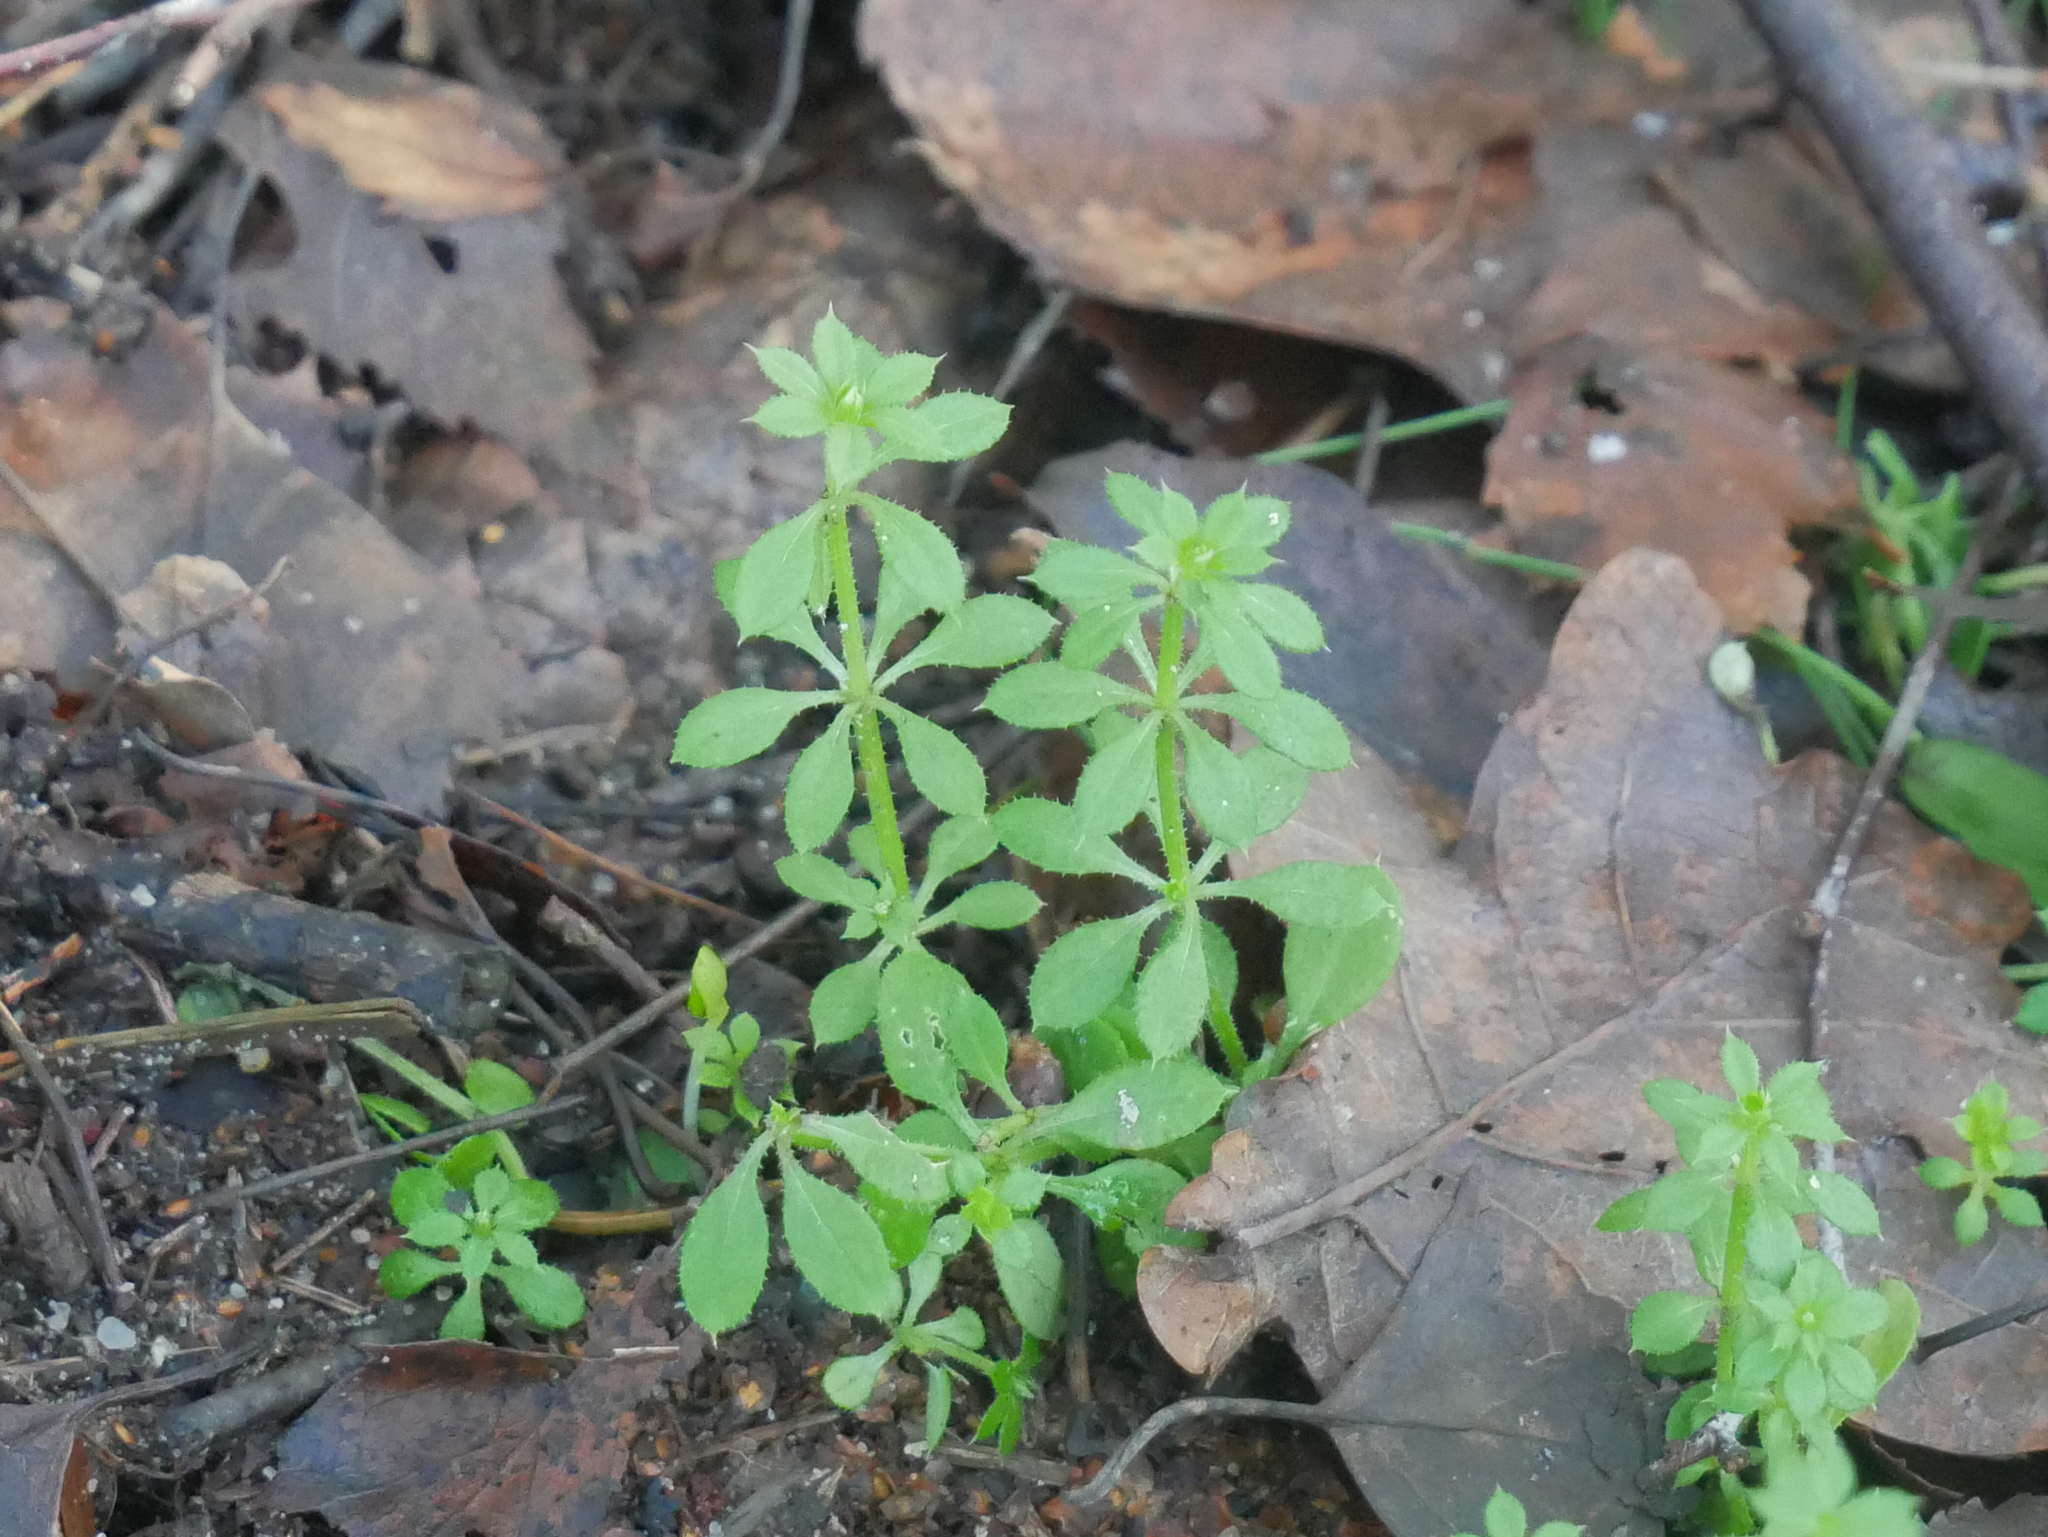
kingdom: Plantae
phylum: Tracheophyta
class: Magnoliopsida
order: Gentianales
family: Rubiaceae
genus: Galium
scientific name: Galium aparine
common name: Cleavers
